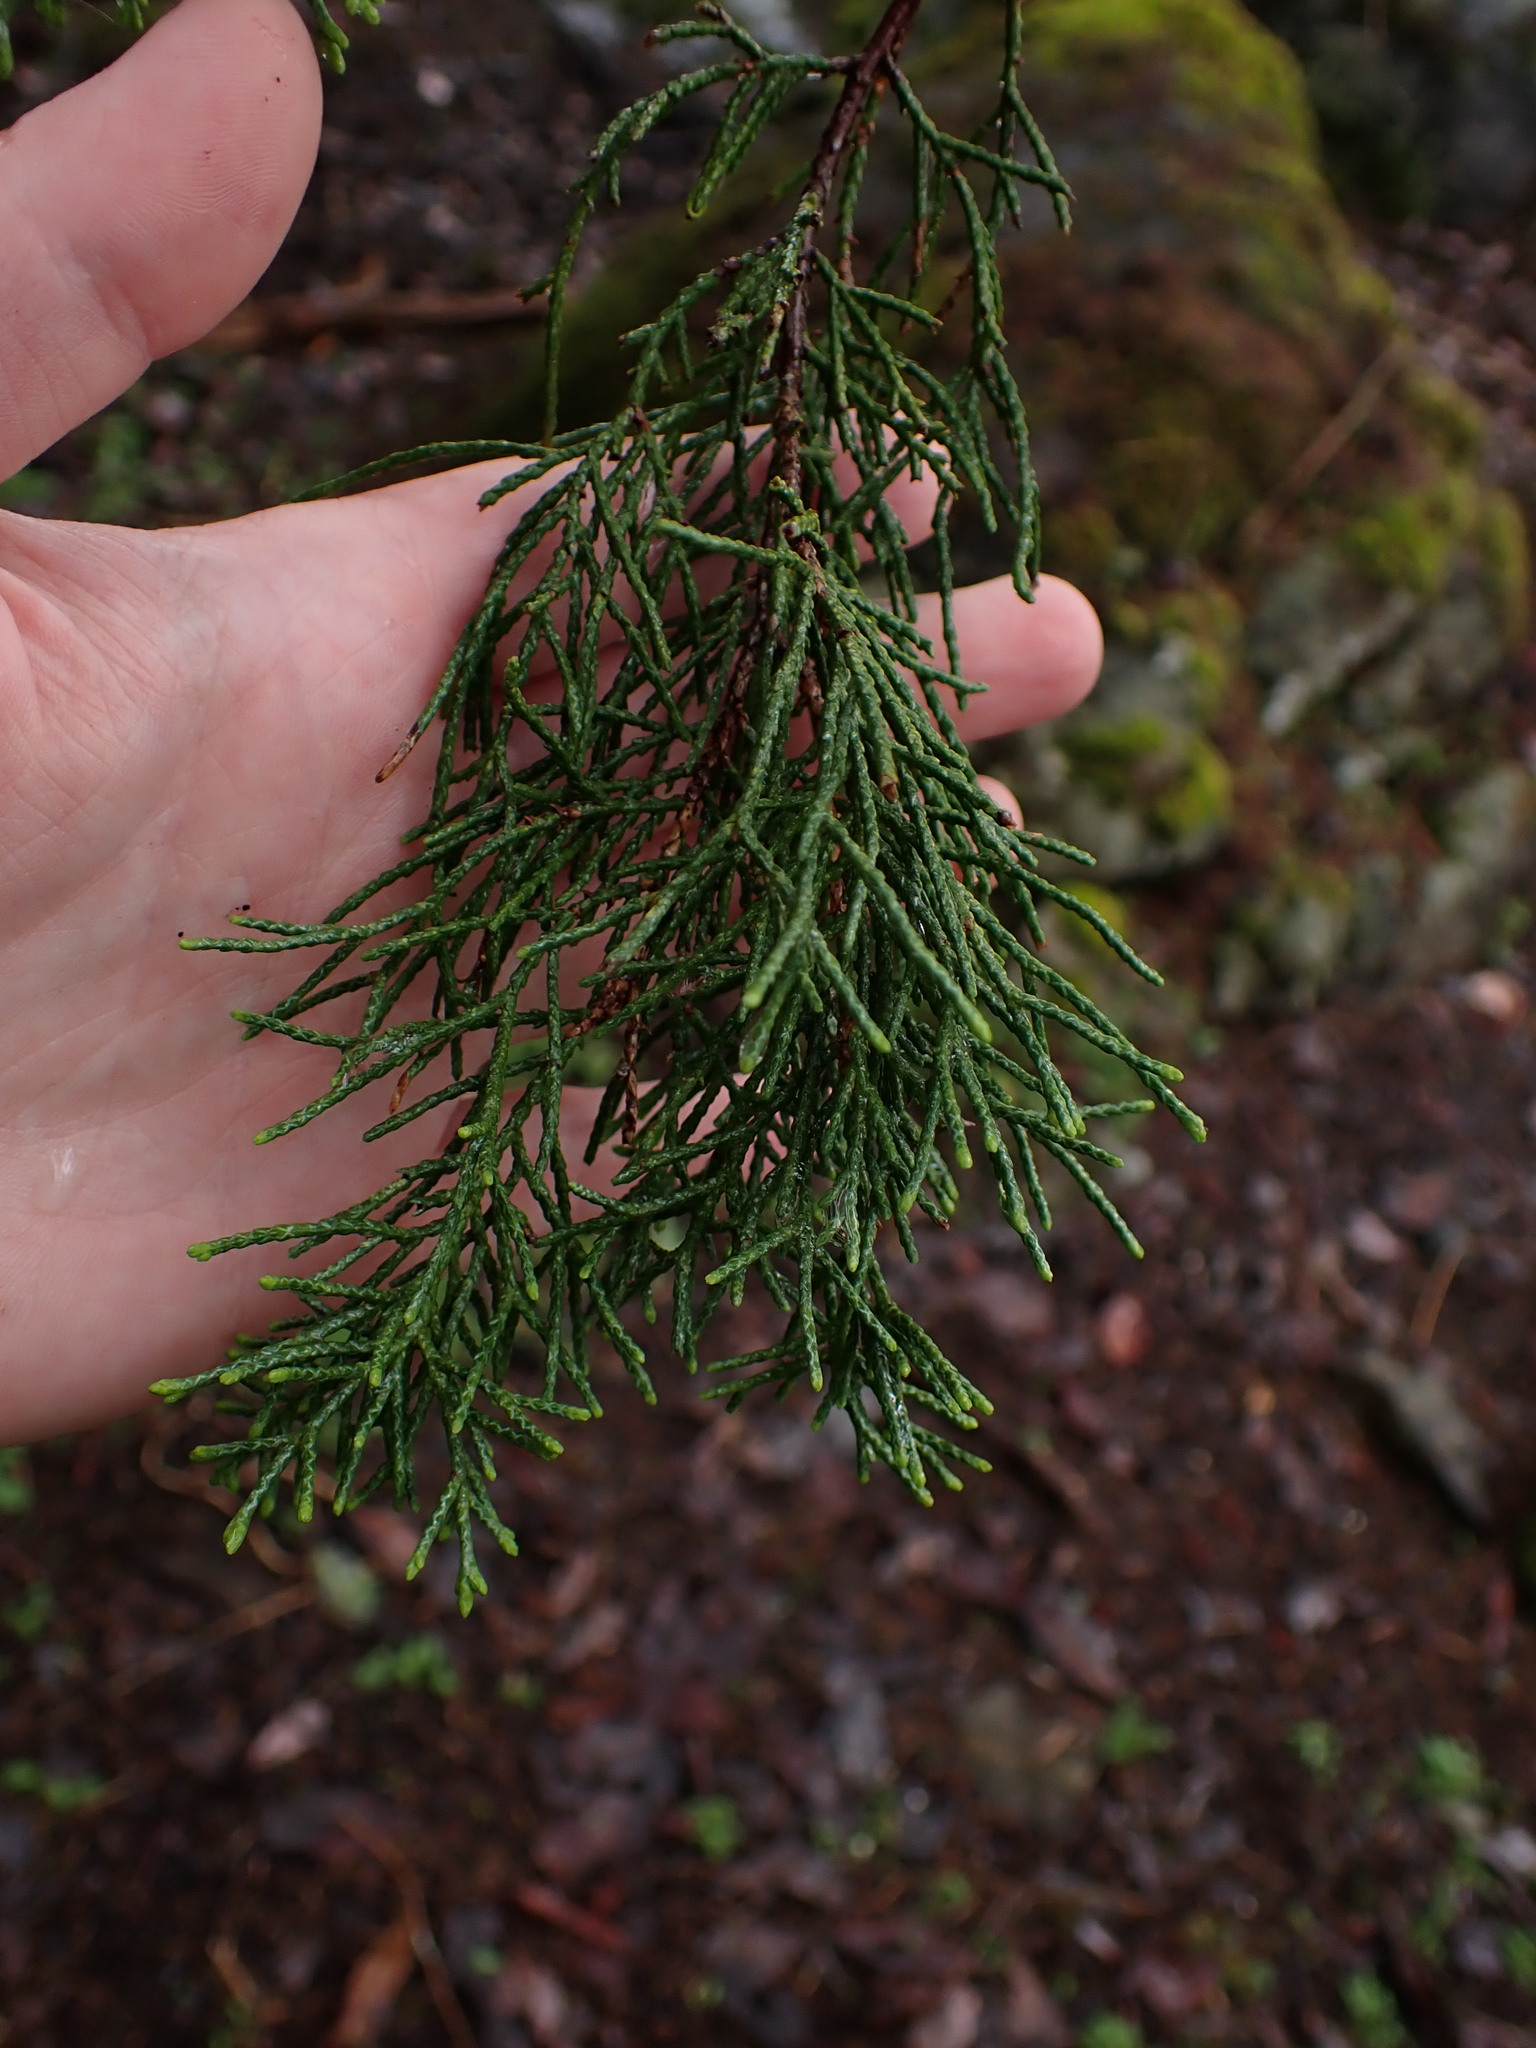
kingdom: Plantae
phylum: Tracheophyta
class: Pinopsida
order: Pinales
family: Cupressaceae
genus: Juniperus
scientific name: Juniperus scopulorum
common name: Rocky mountain juniper
